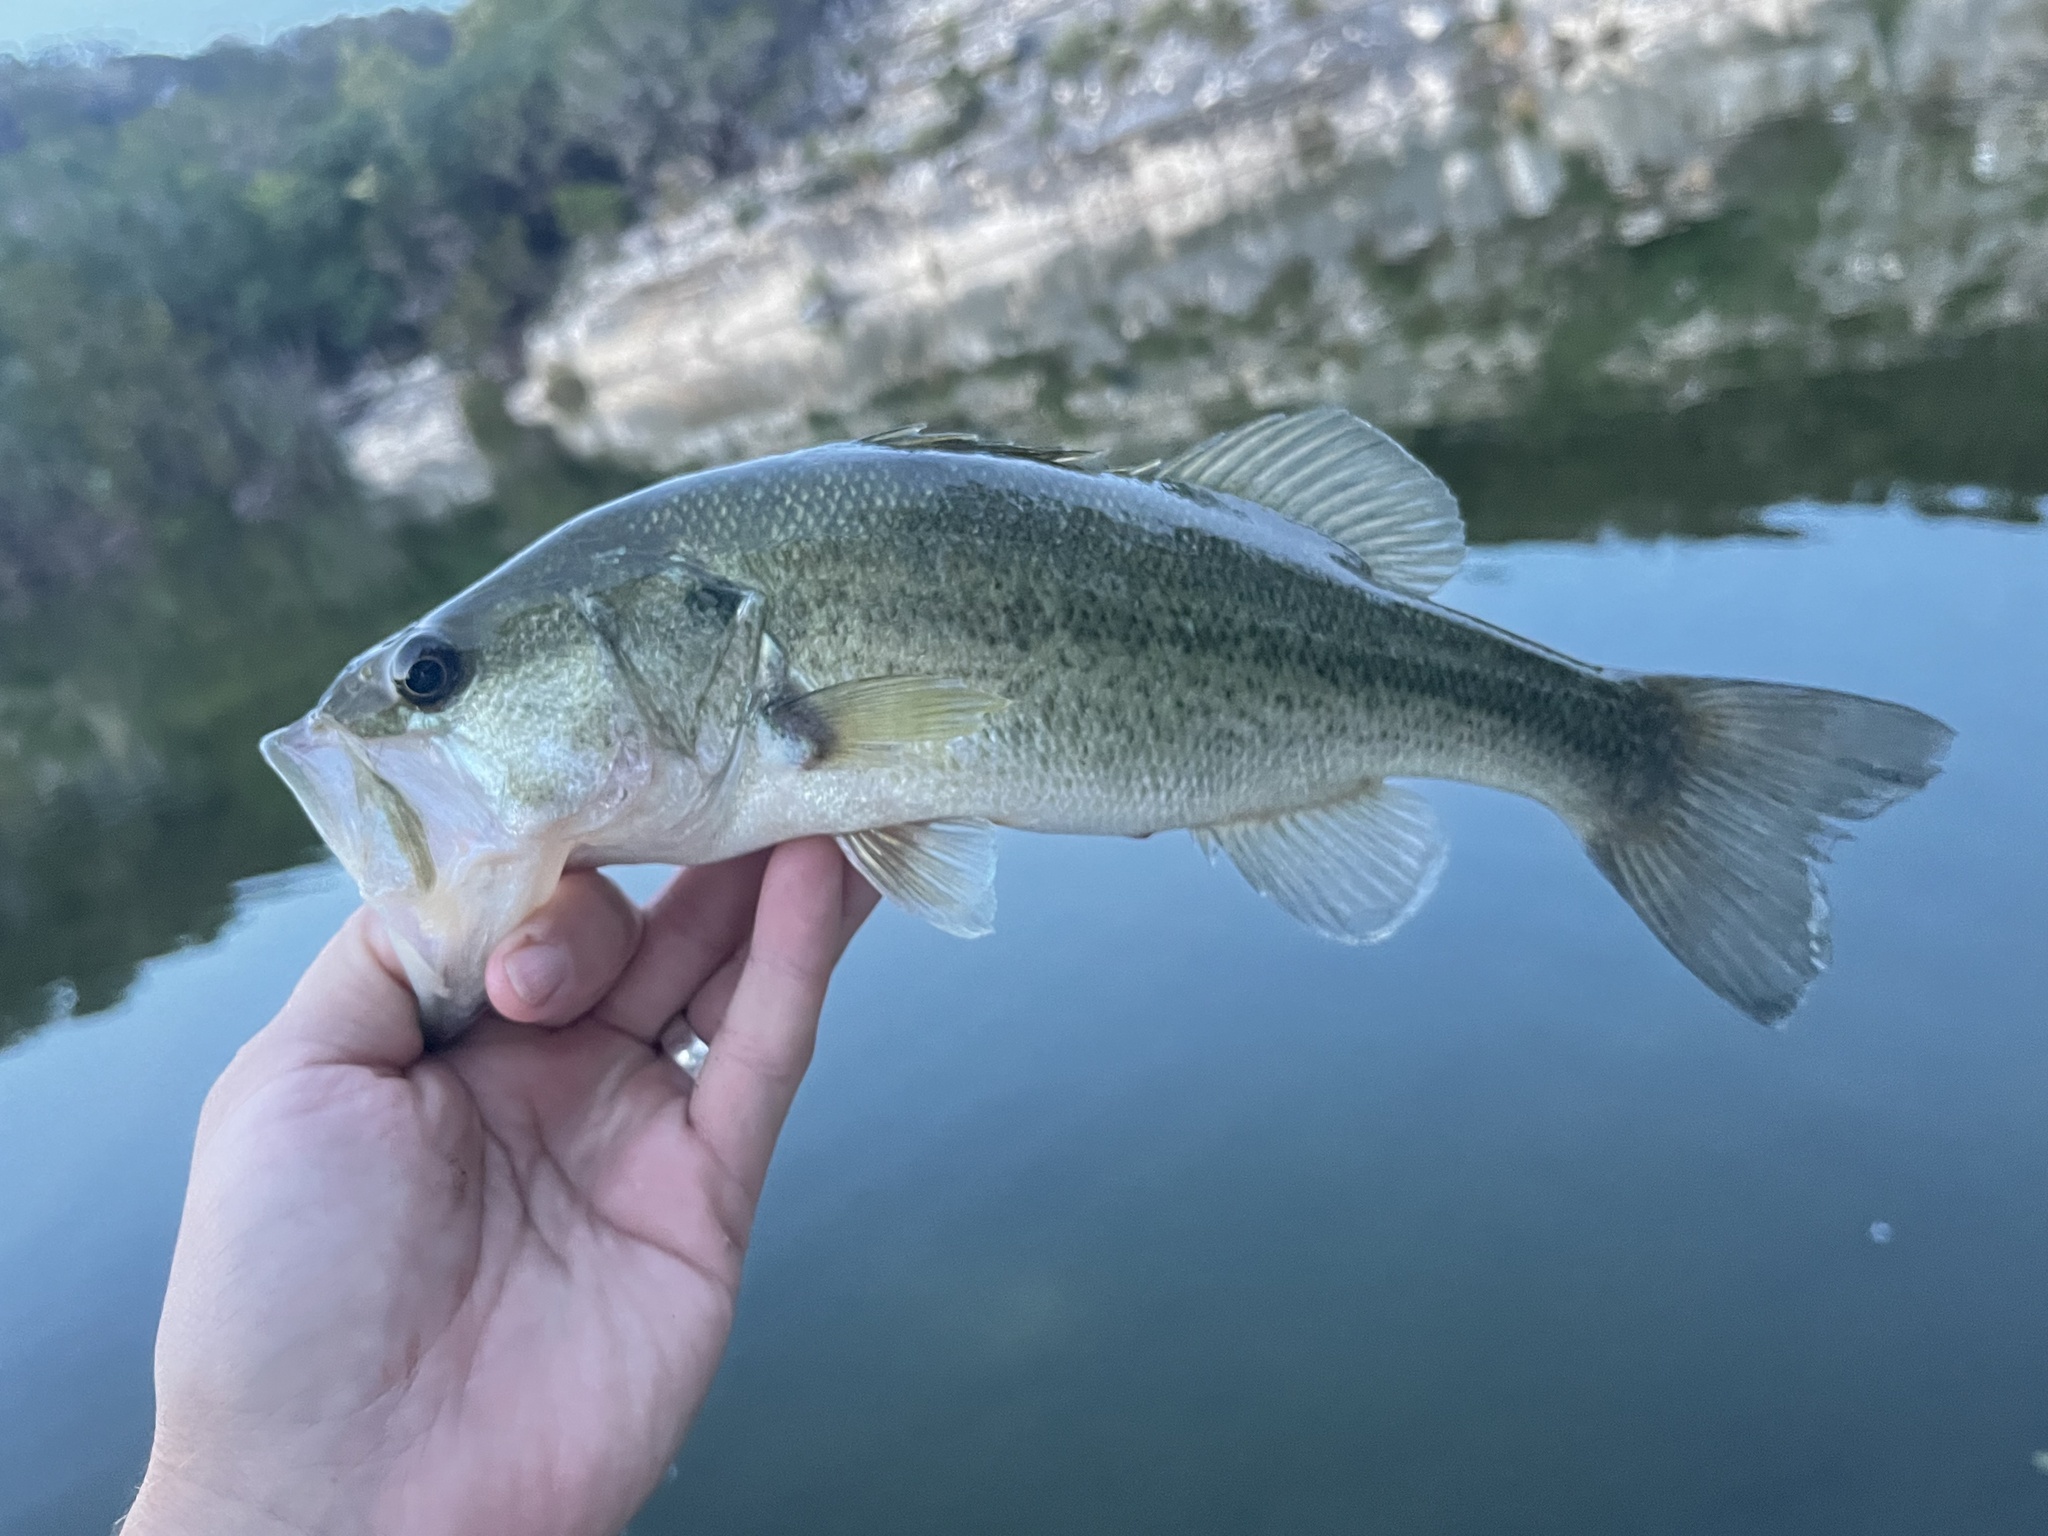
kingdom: Animalia
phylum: Chordata
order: Perciformes
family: Centrarchidae
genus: Micropterus
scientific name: Micropterus
